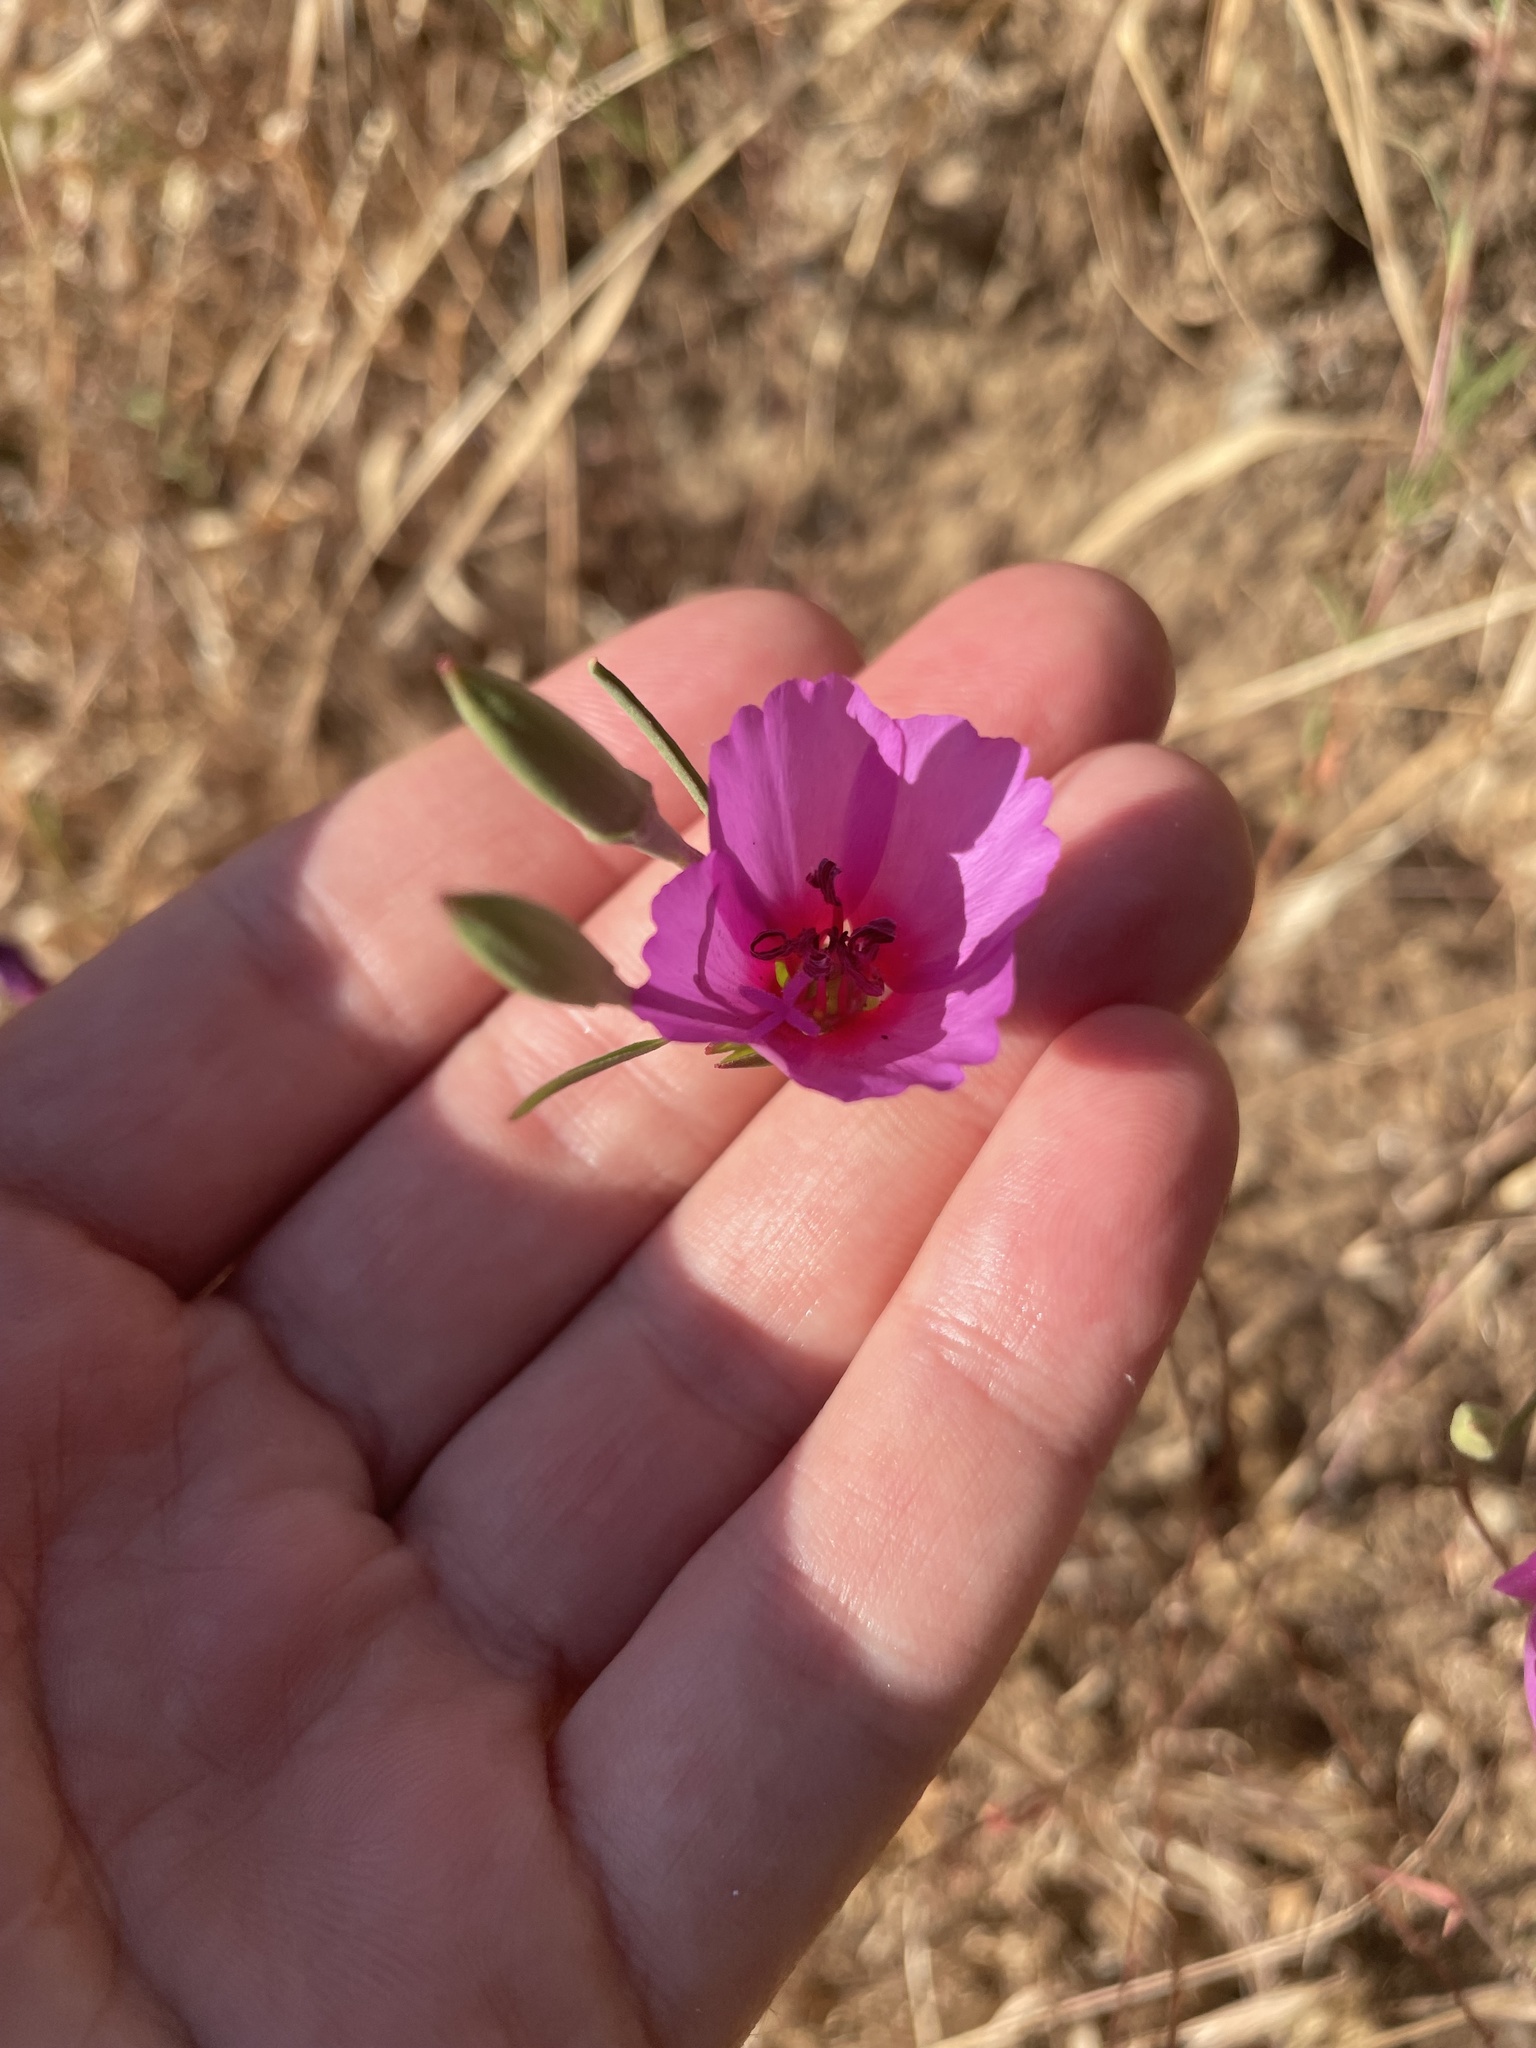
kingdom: Plantae
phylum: Tracheophyta
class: Magnoliopsida
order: Myrtales
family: Onagraceae
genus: Clarkia
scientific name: Clarkia rubicunda
